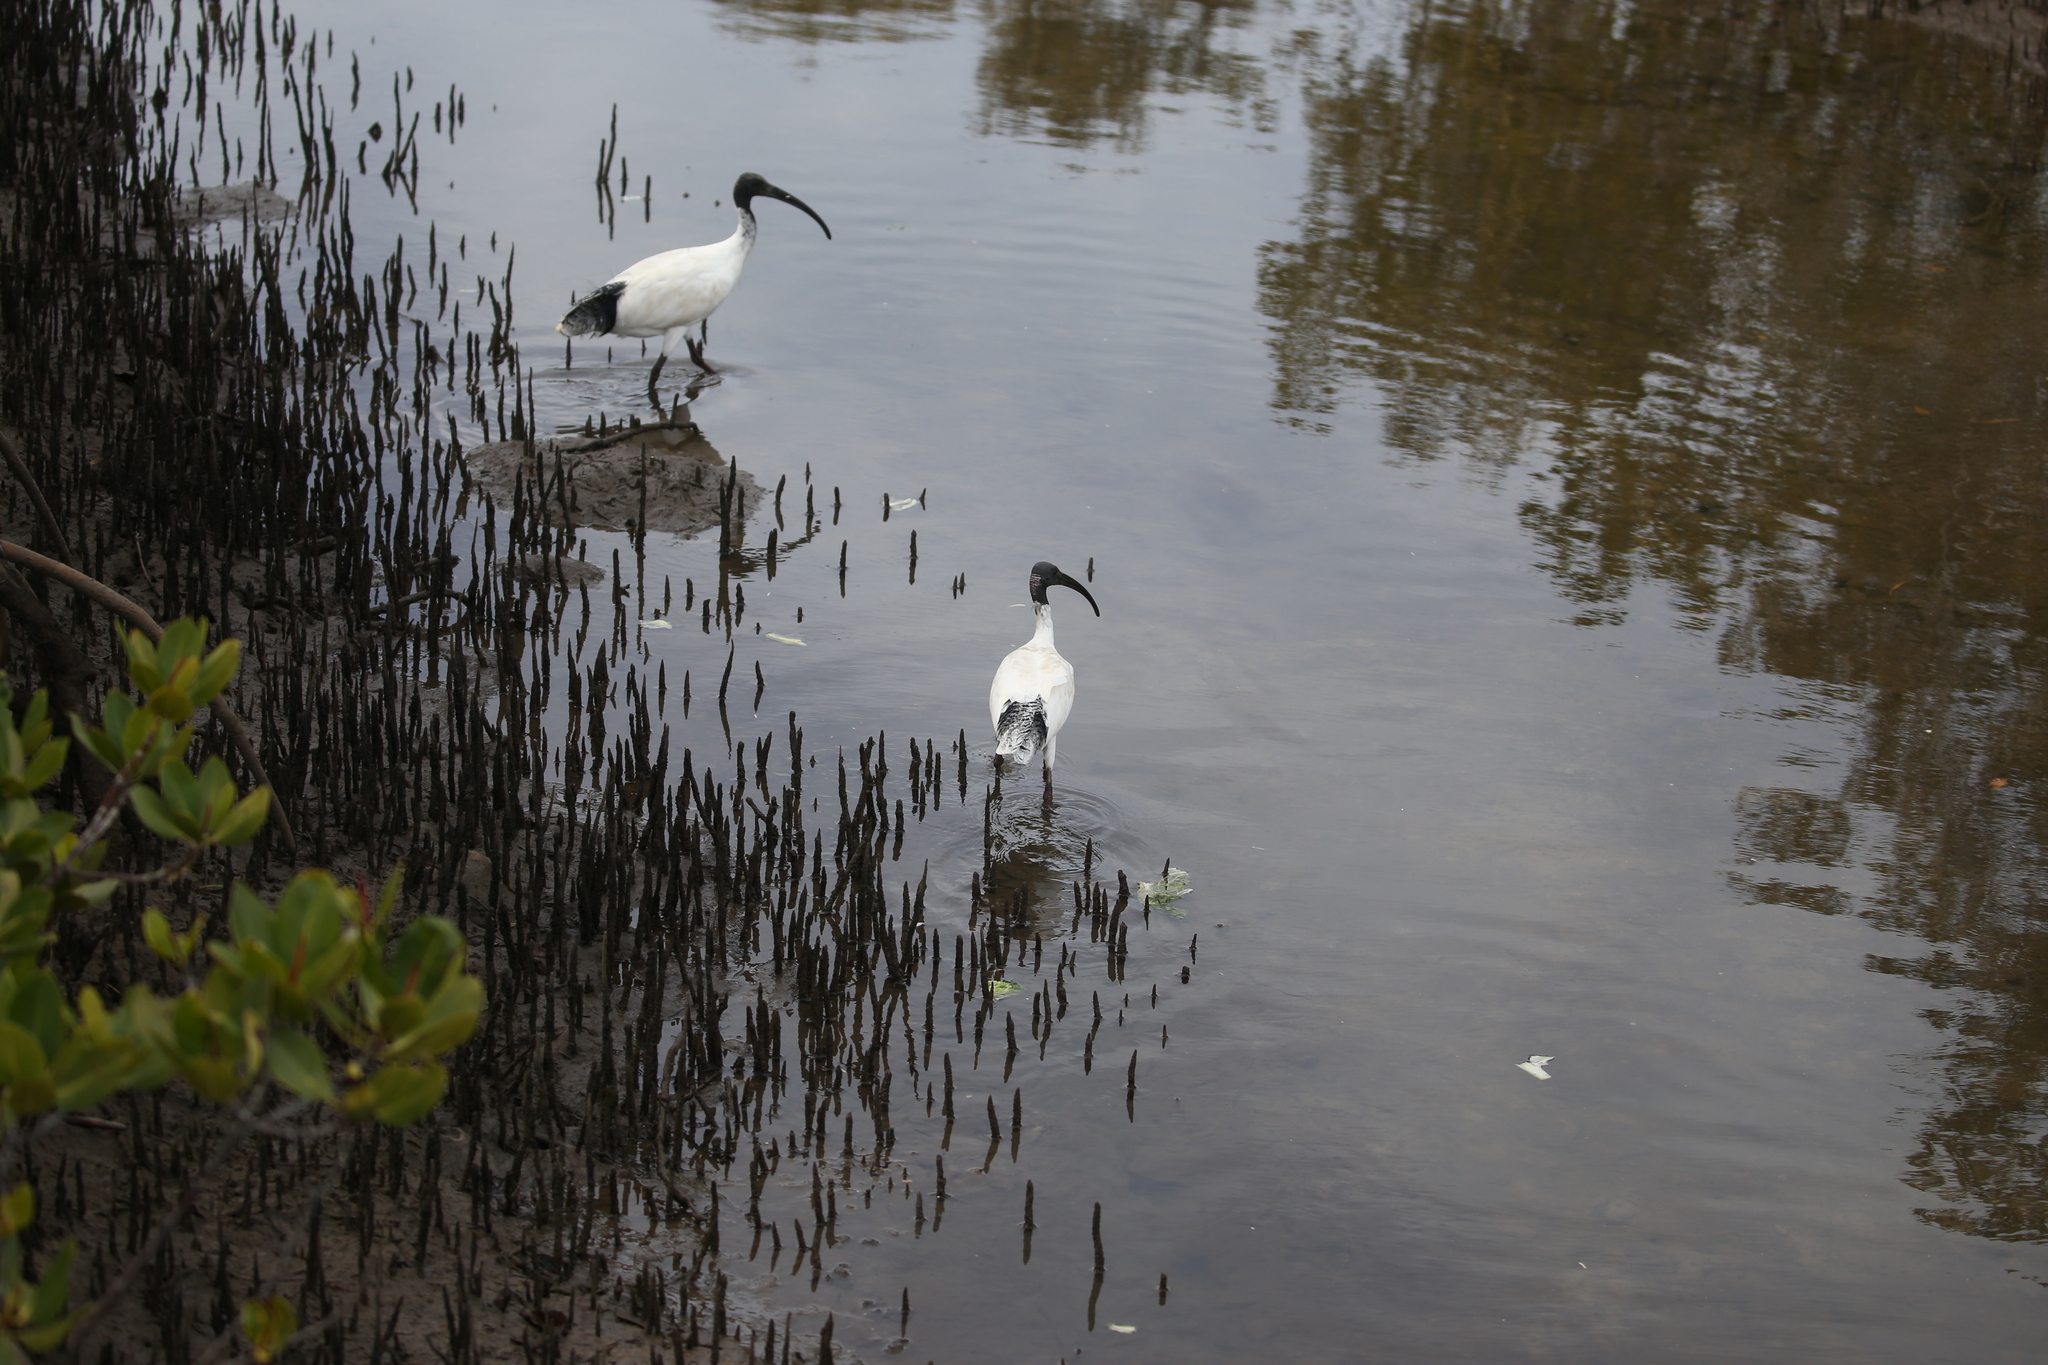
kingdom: Animalia
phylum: Chordata
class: Aves
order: Pelecaniformes
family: Threskiornithidae
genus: Threskiornis
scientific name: Threskiornis molucca
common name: Australian white ibis
